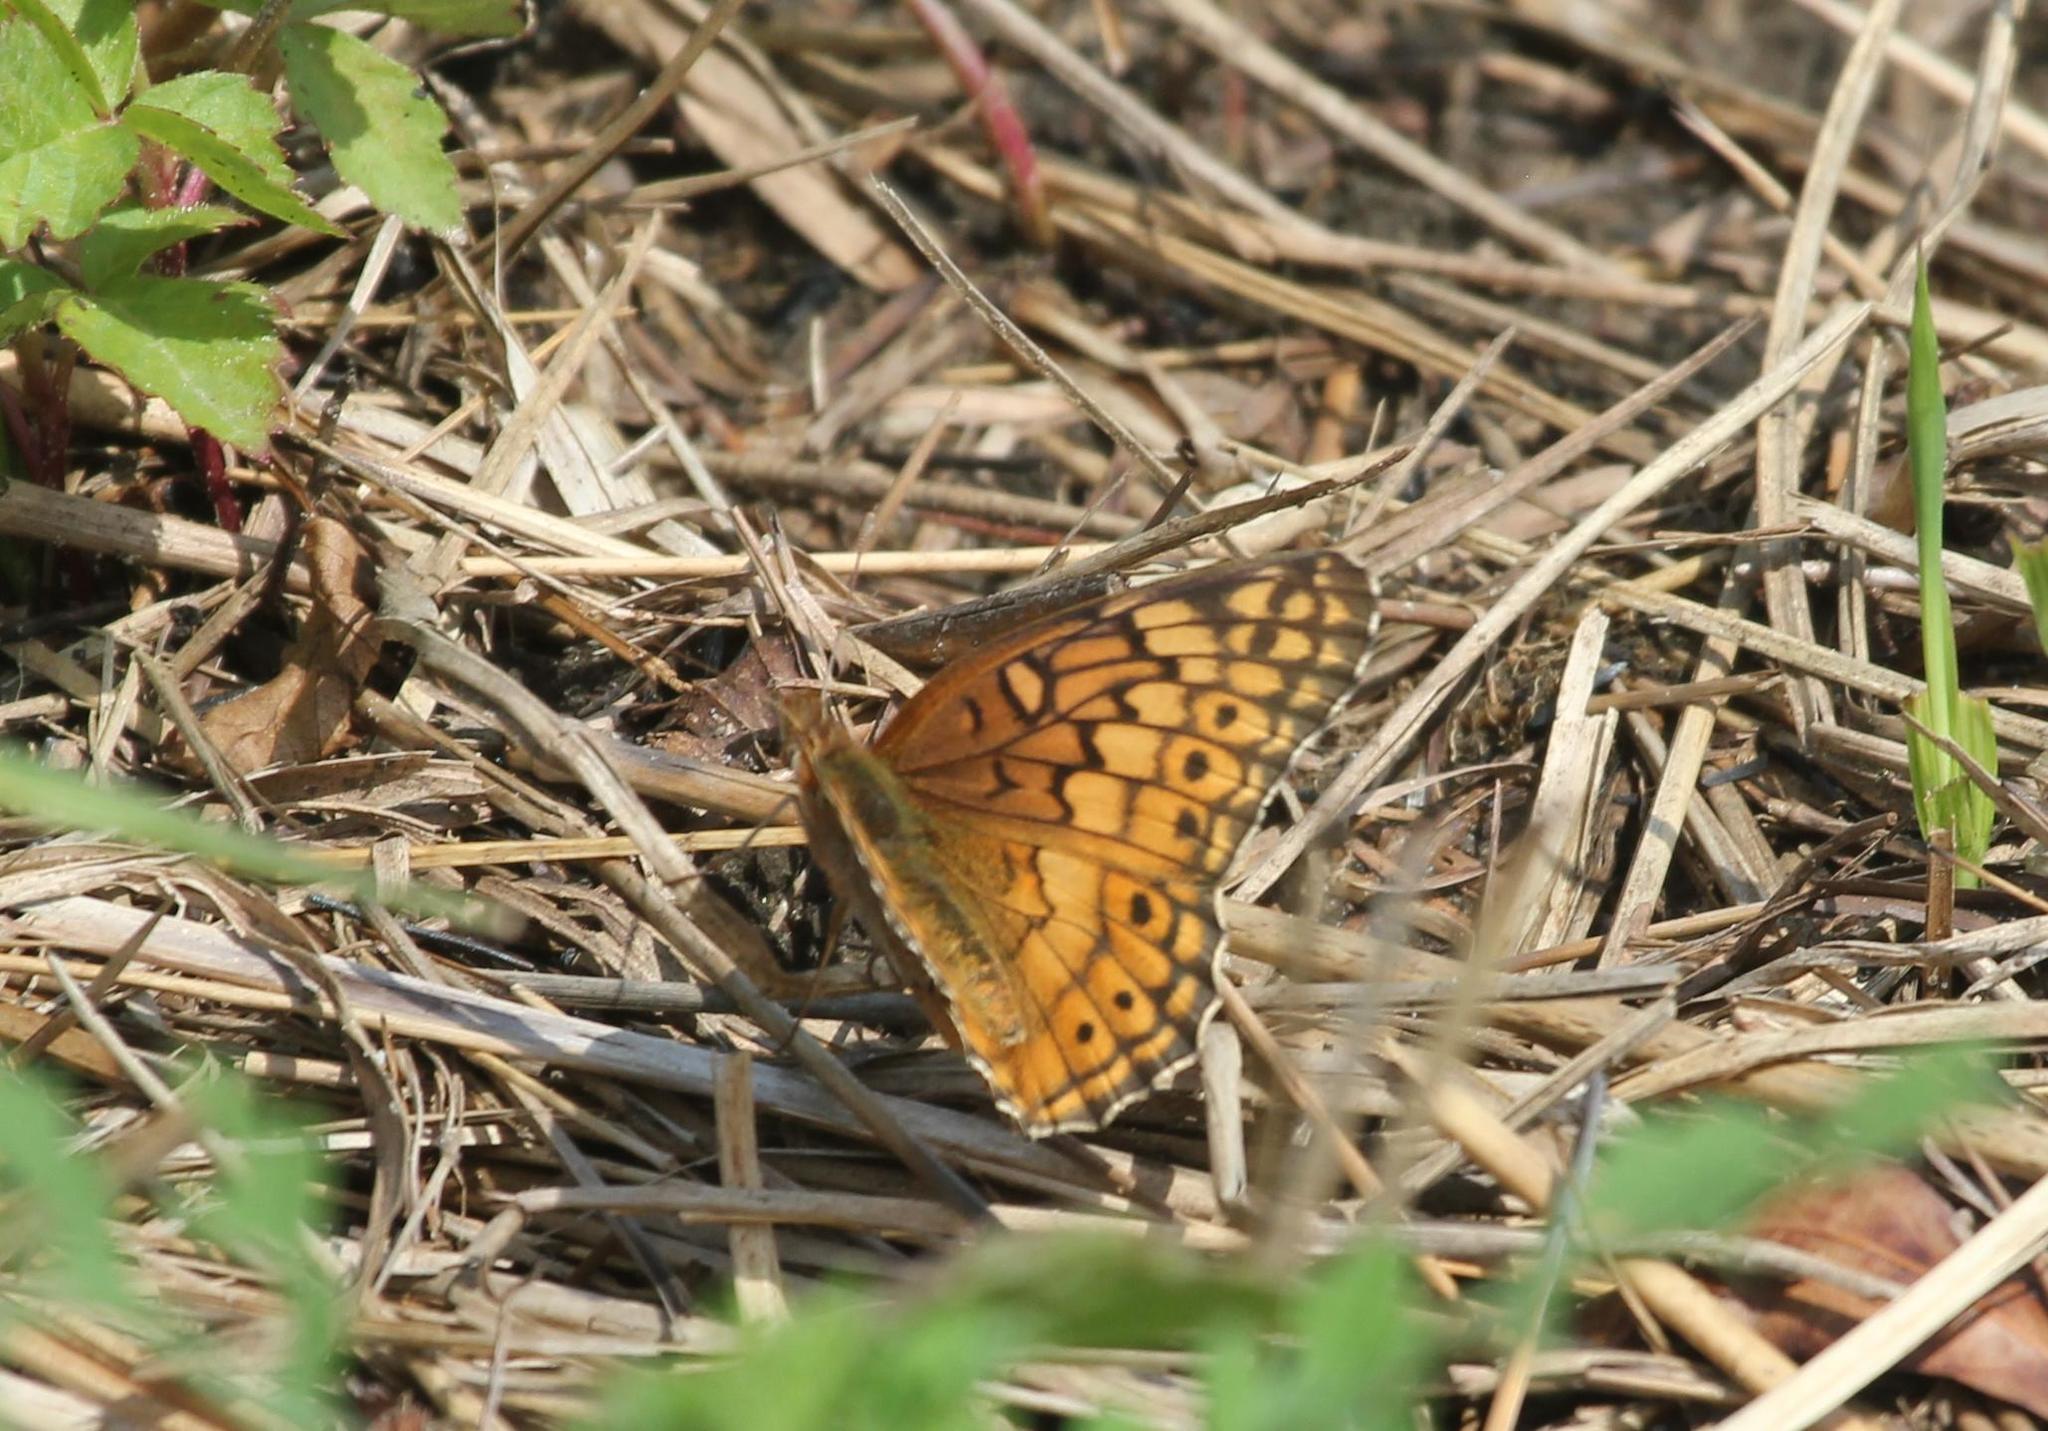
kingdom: Animalia
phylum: Arthropoda
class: Insecta
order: Lepidoptera
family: Nymphalidae
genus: Euptoieta
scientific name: Euptoieta claudia
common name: Variegated fritillary
